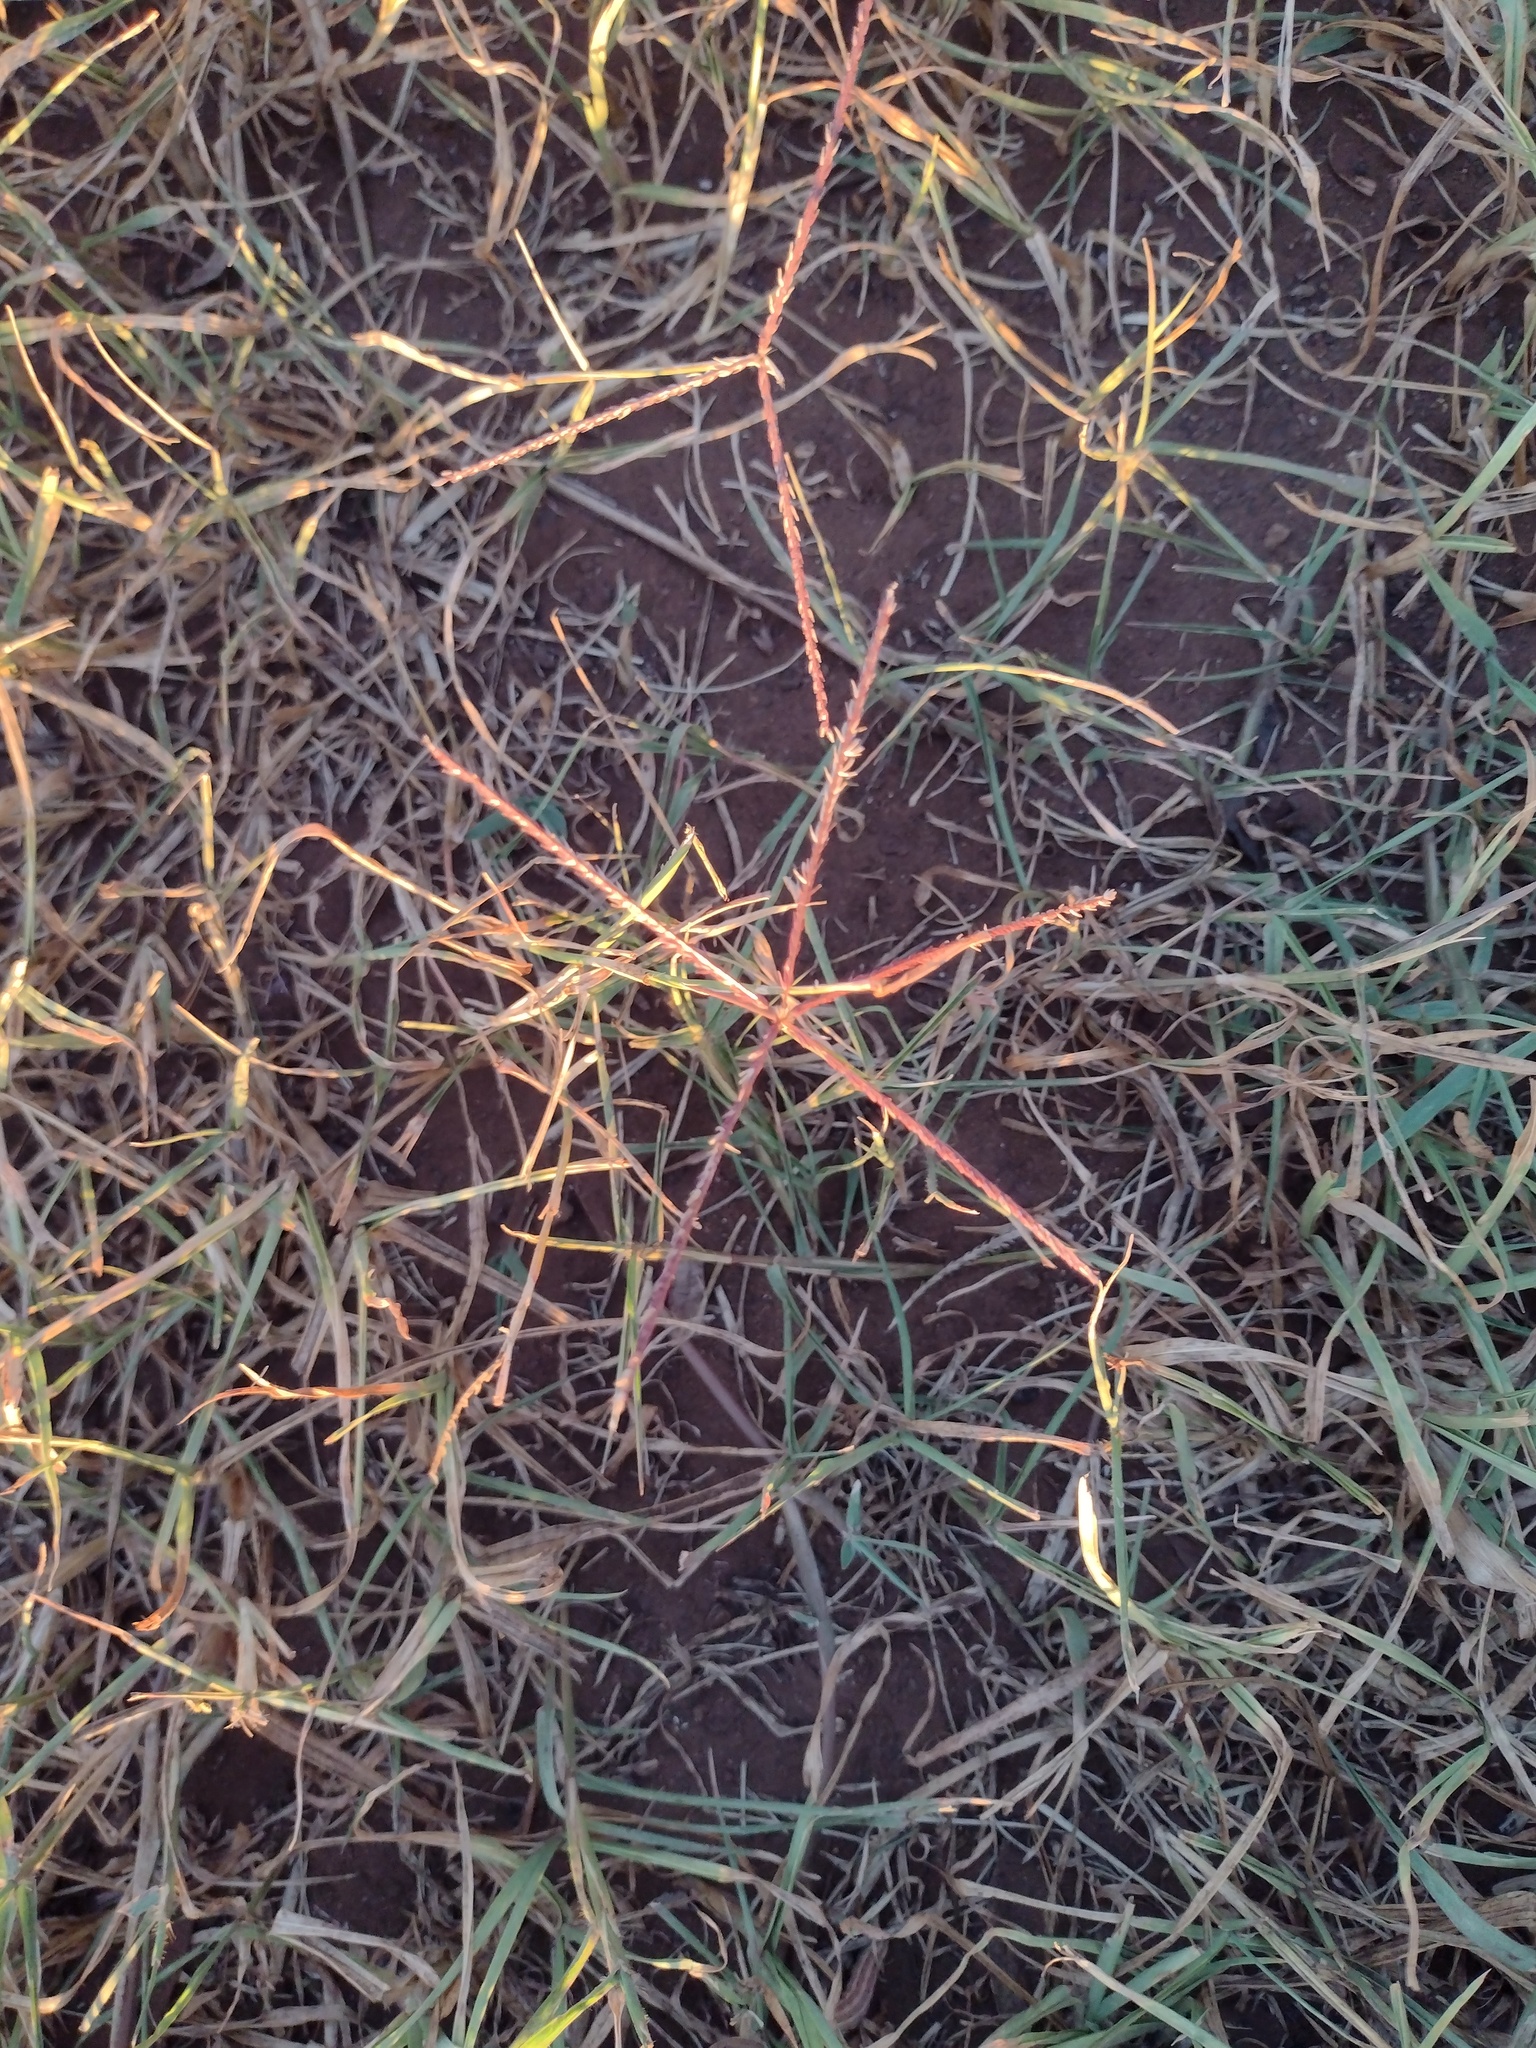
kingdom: Plantae
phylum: Tracheophyta
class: Liliopsida
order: Poales
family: Poaceae
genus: Cynodon
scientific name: Cynodon dactylon
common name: Bermuda grass
